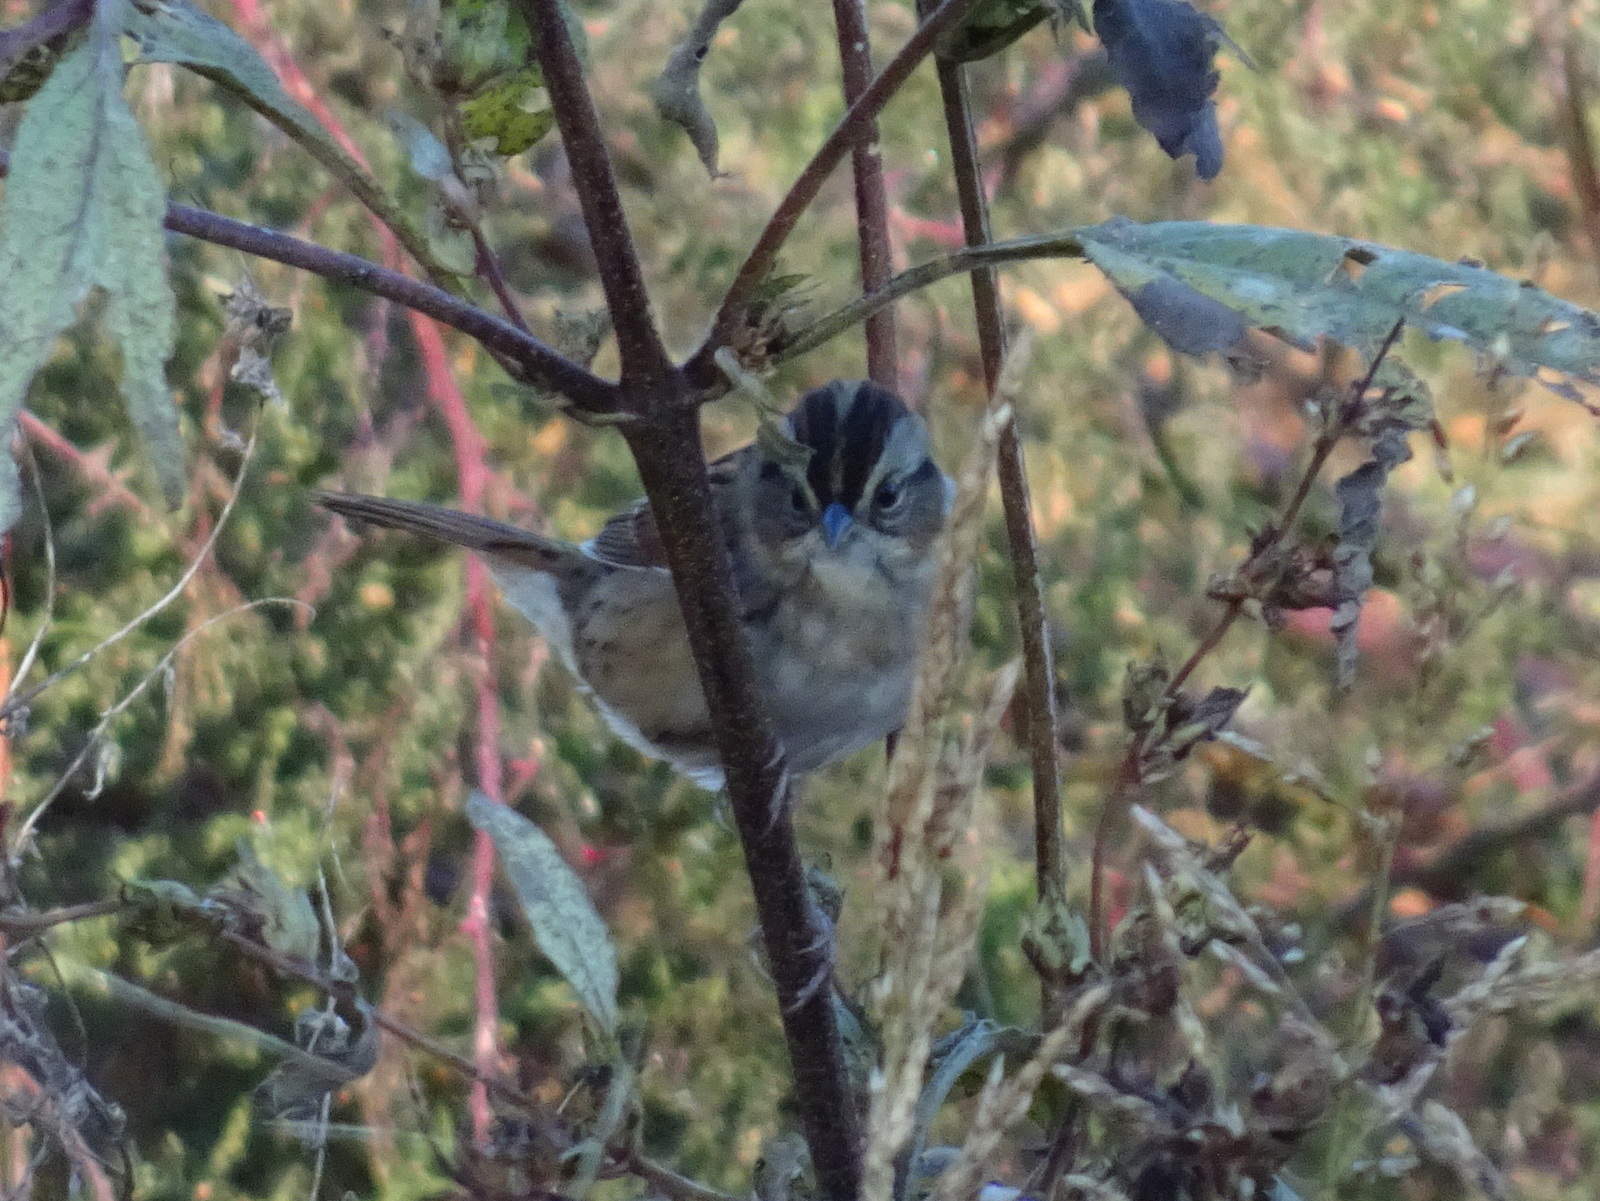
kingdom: Animalia
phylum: Chordata
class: Aves
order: Passeriformes
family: Passerellidae
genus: Melospiza
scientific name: Melospiza georgiana
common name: Swamp sparrow
